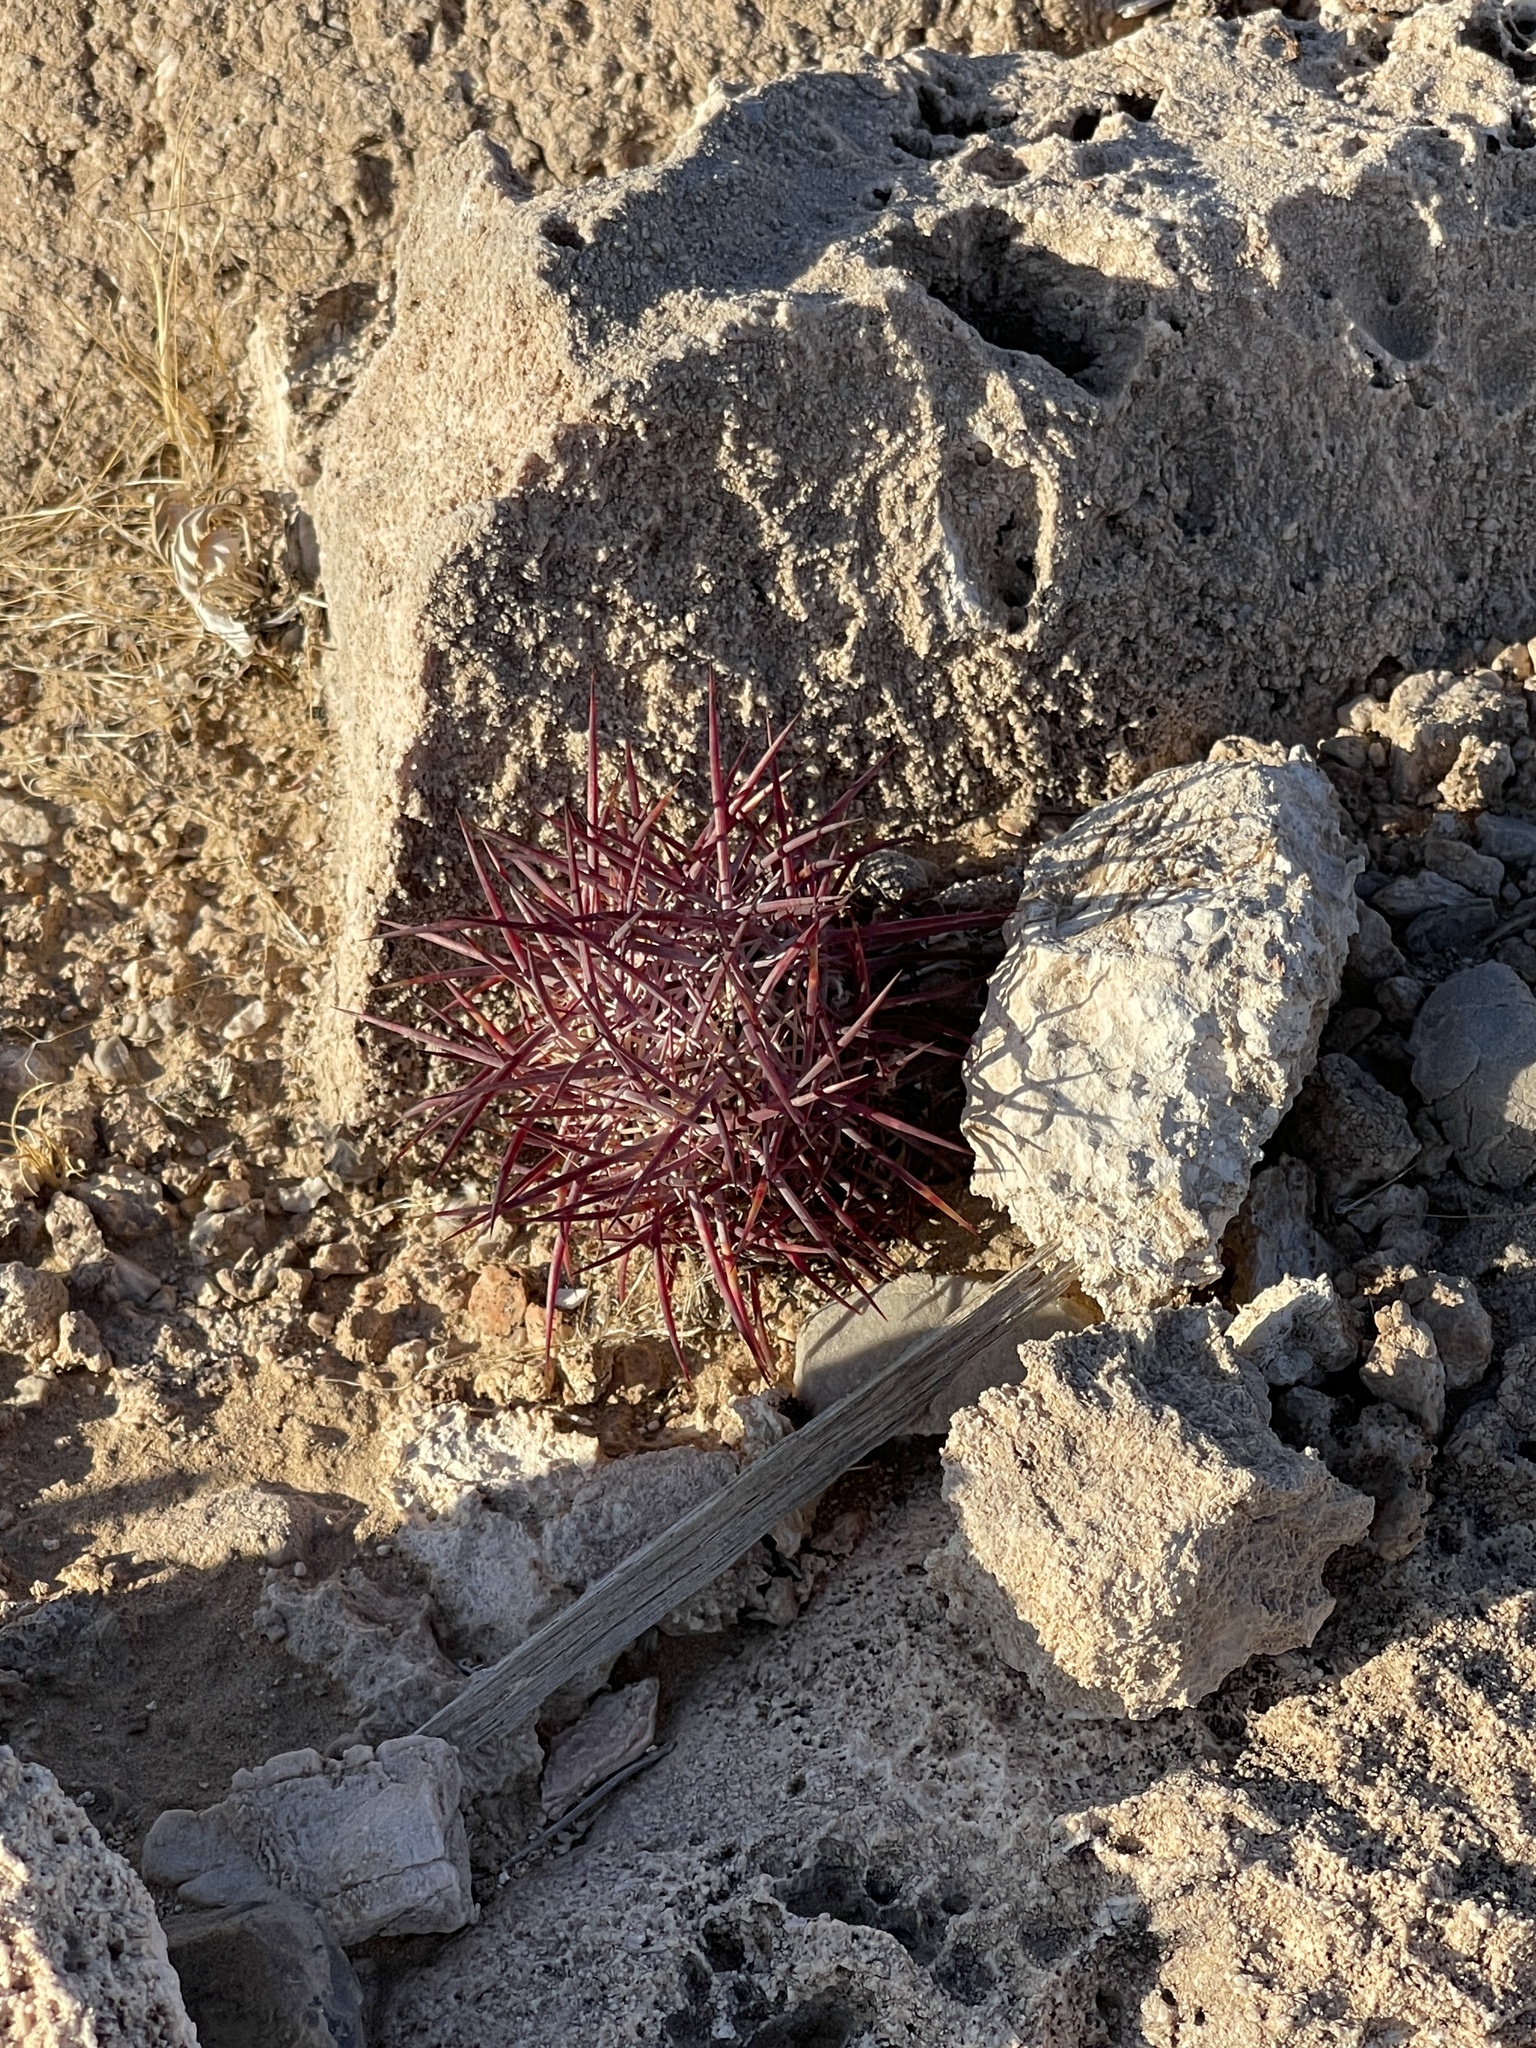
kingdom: Plantae
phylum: Tracheophyta
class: Magnoliopsida
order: Caryophyllales
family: Cactaceae
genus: Sclerocactus
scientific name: Sclerocactus johnsonii
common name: Eight-spine fishhook cactus
